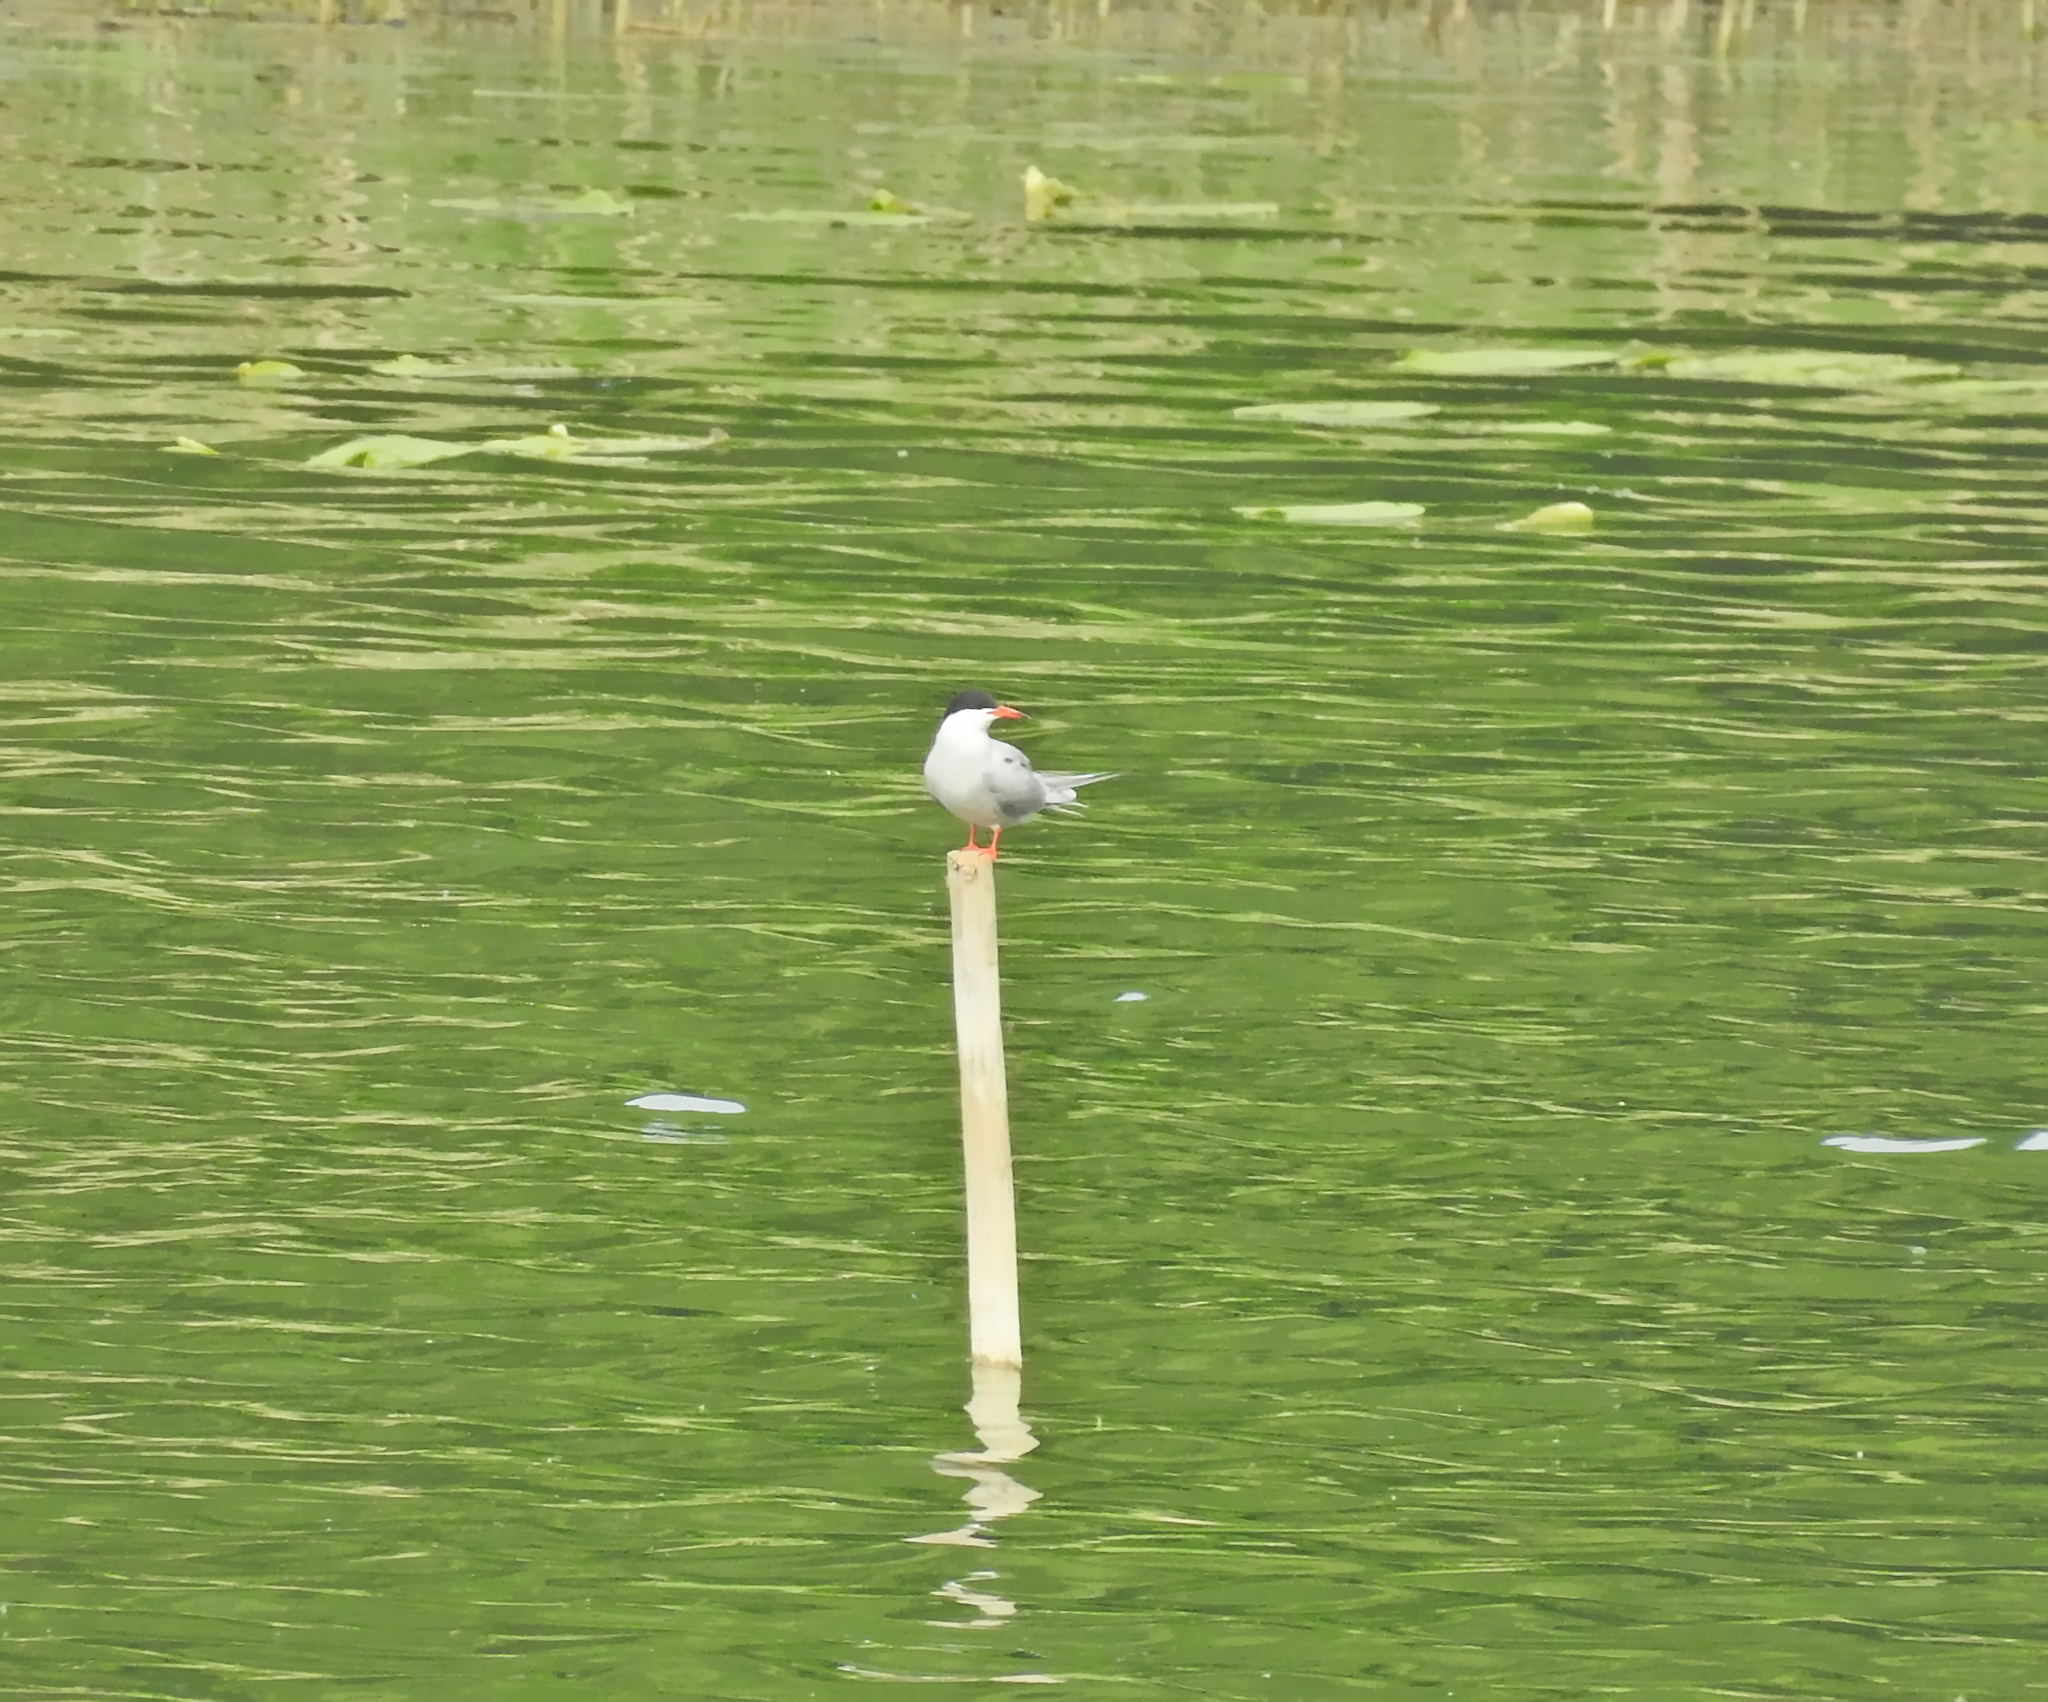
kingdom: Animalia
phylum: Chordata
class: Aves
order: Charadriiformes
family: Laridae
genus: Sterna
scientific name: Sterna hirundo
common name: Common tern
